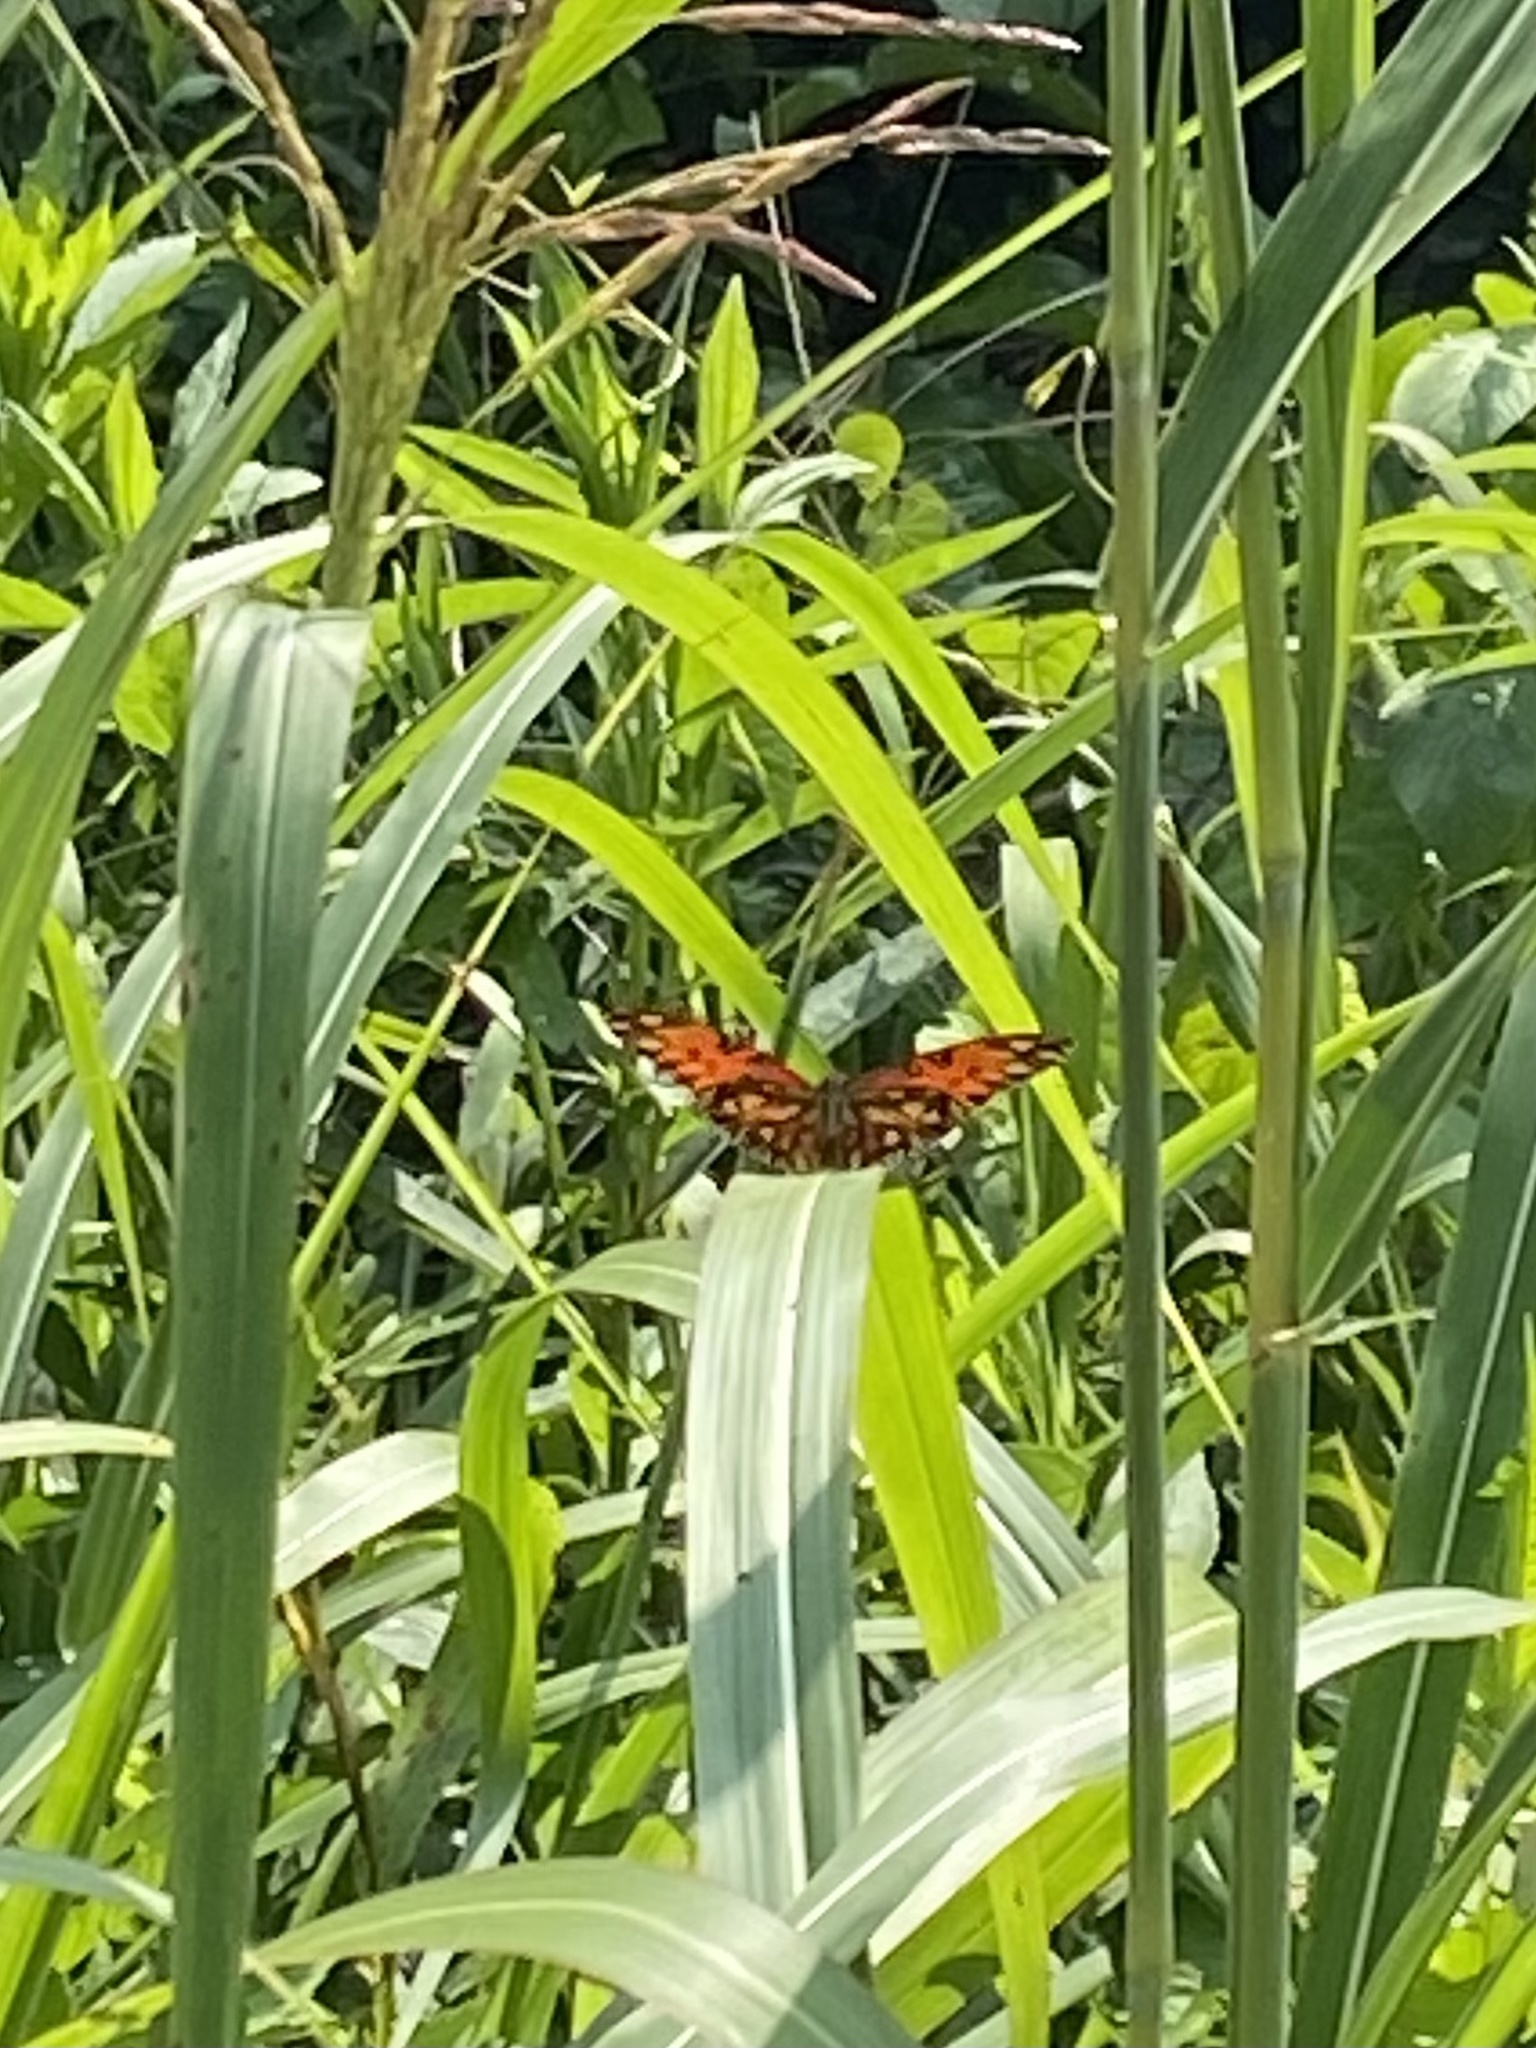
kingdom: Animalia
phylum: Arthropoda
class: Insecta
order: Lepidoptera
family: Nymphalidae
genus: Dione
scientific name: Dione vanillae
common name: Gulf fritillary
